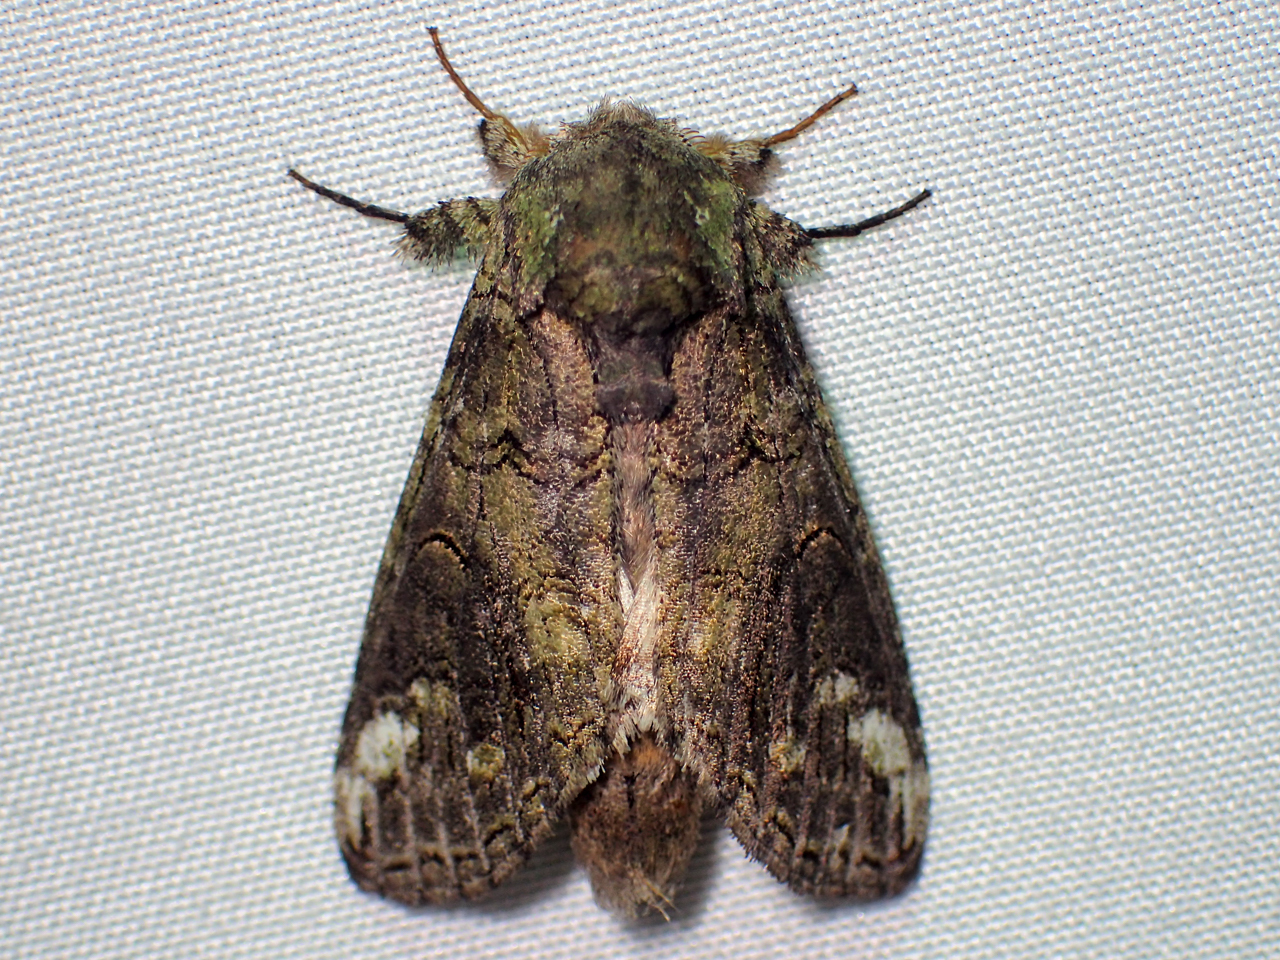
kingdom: Animalia
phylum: Arthropoda
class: Insecta
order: Lepidoptera
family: Notodontidae
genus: Heterocampa
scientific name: Heterocampa obliqua
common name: Oblique heterocampa
